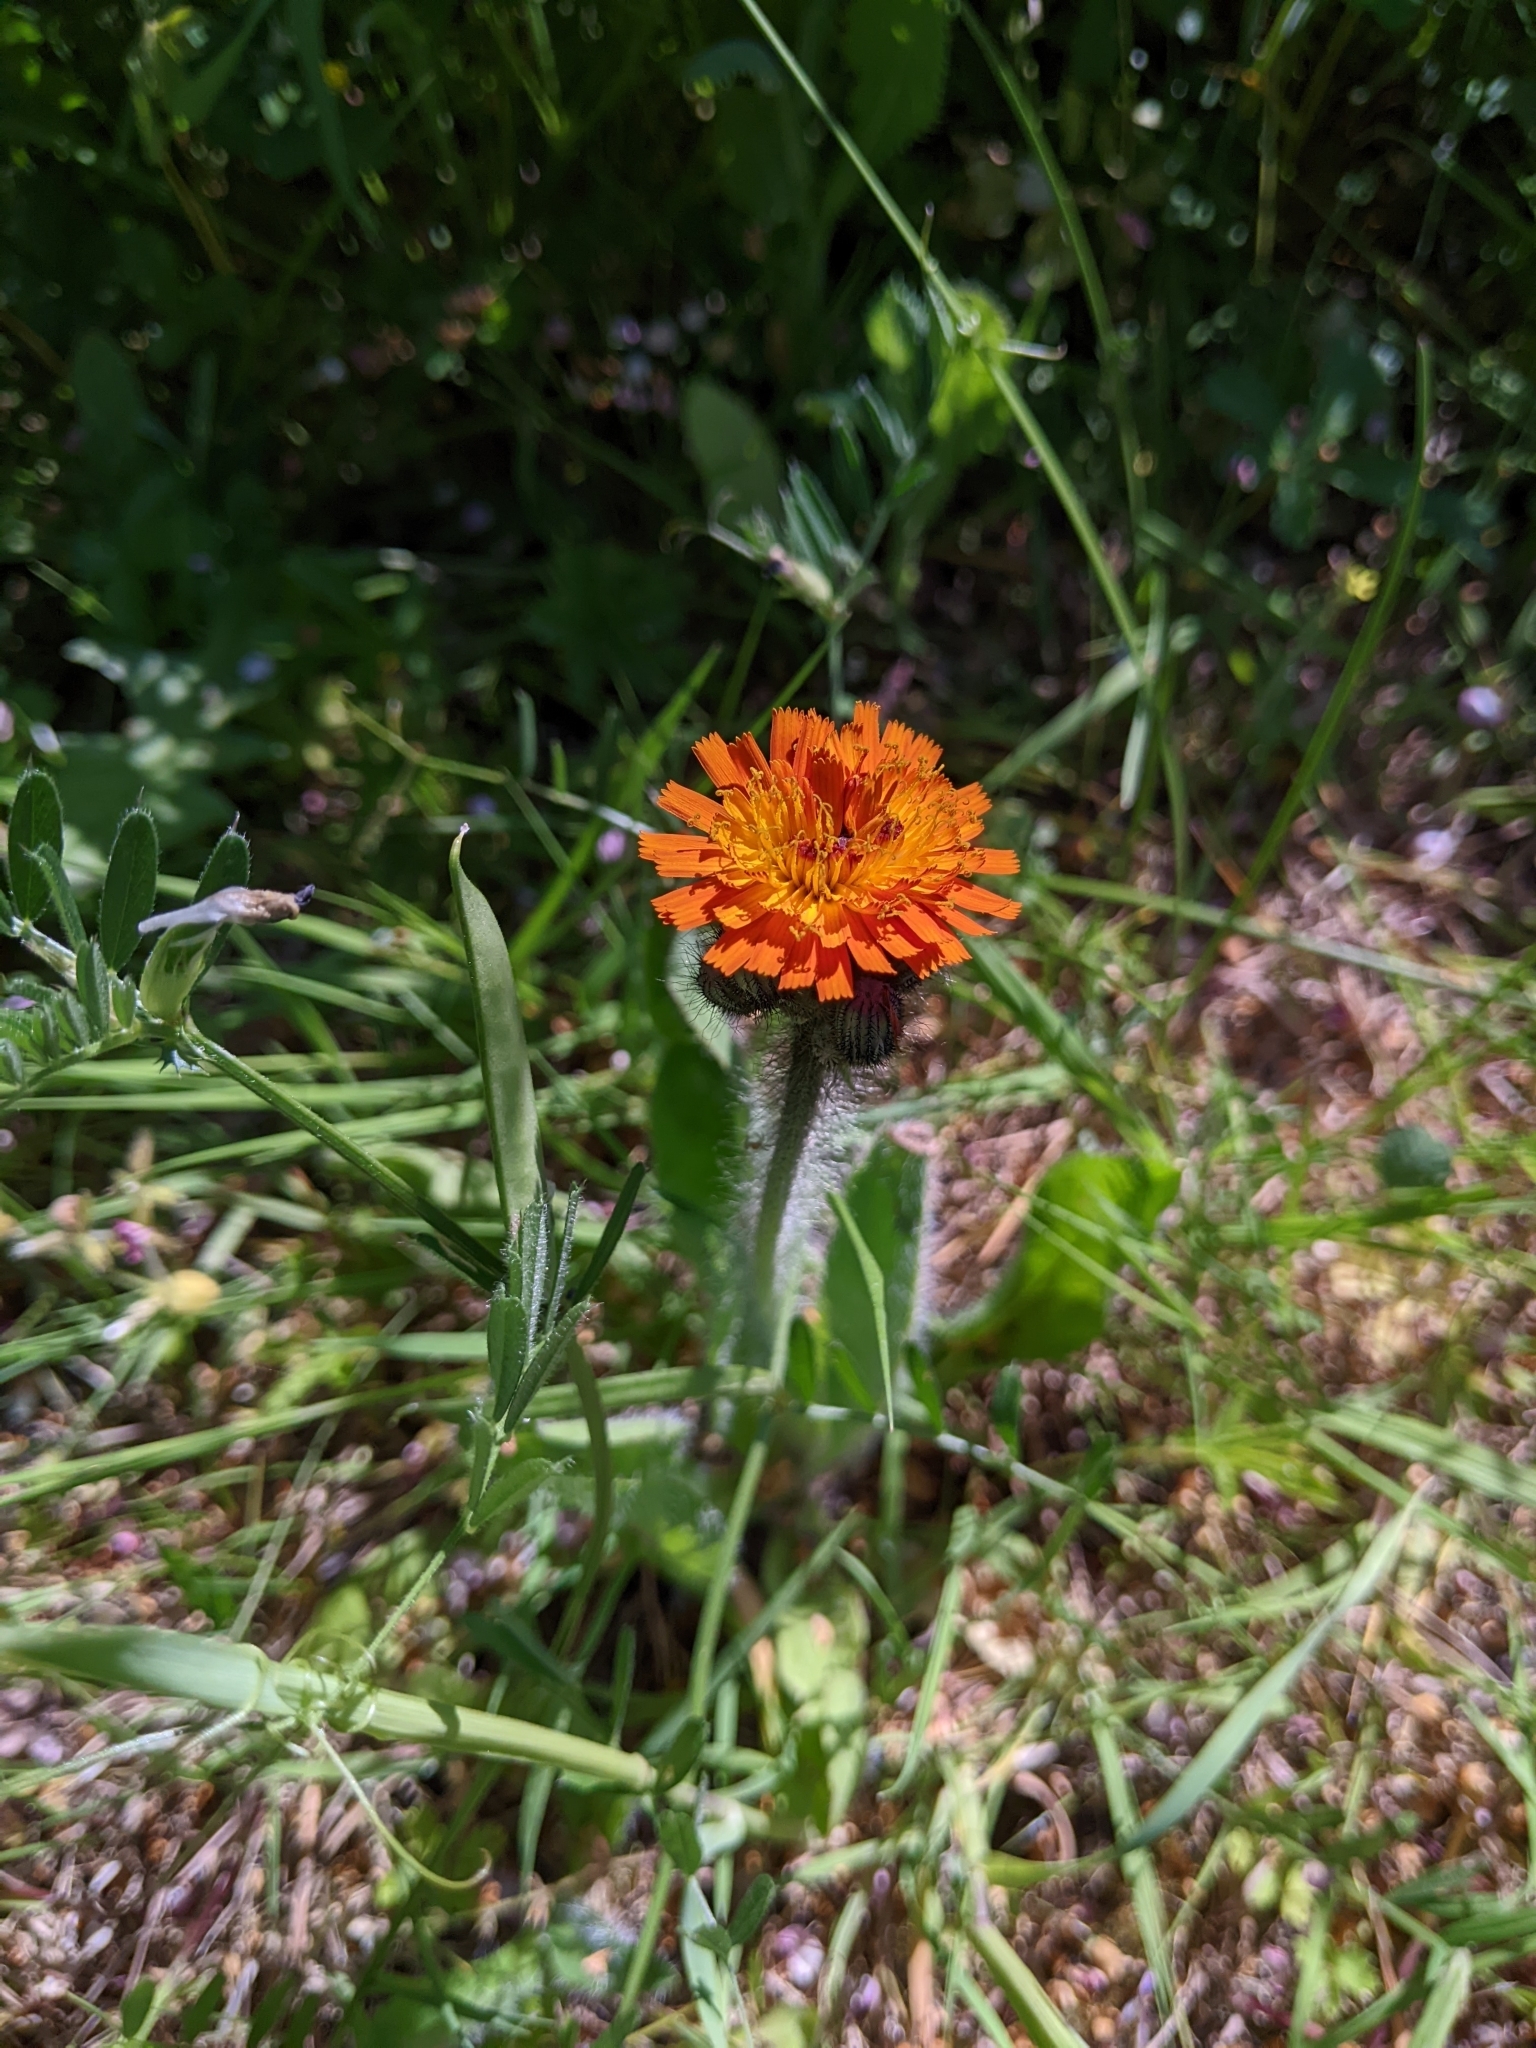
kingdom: Plantae
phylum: Tracheophyta
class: Magnoliopsida
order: Asterales
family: Asteraceae
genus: Pilosella
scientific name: Pilosella aurantiaca
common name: Fox-and-cubs
